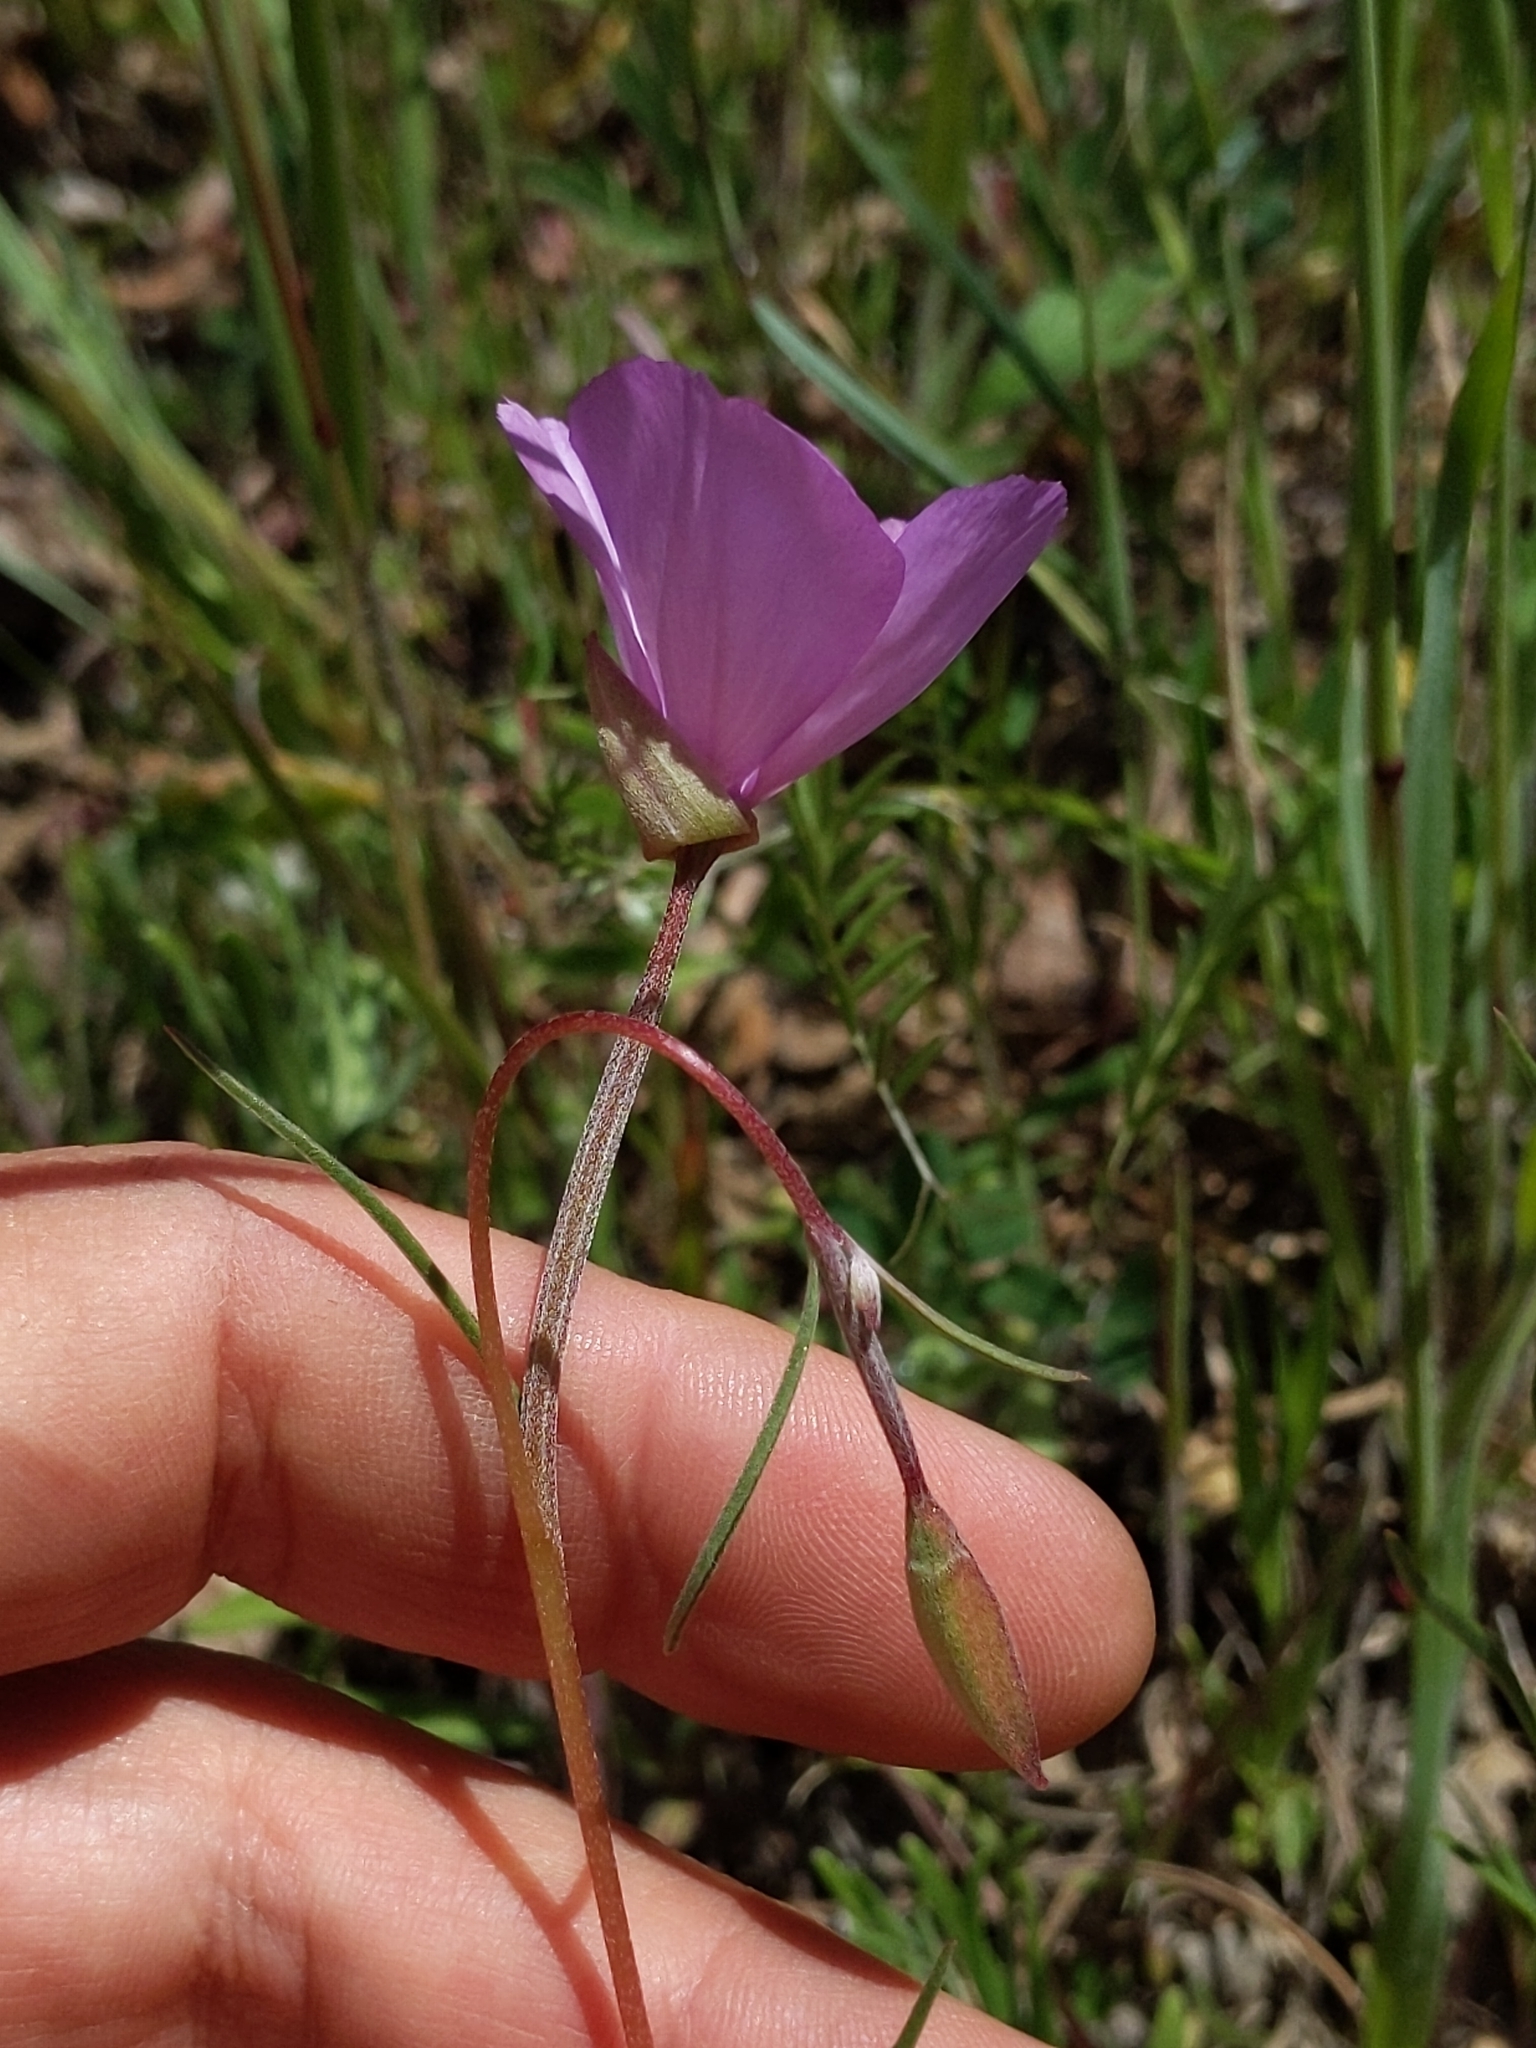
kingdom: Plantae
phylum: Tracheophyta
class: Magnoliopsida
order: Myrtales
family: Onagraceae
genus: Clarkia
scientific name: Clarkia gracilis
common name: Graceful clarkia
